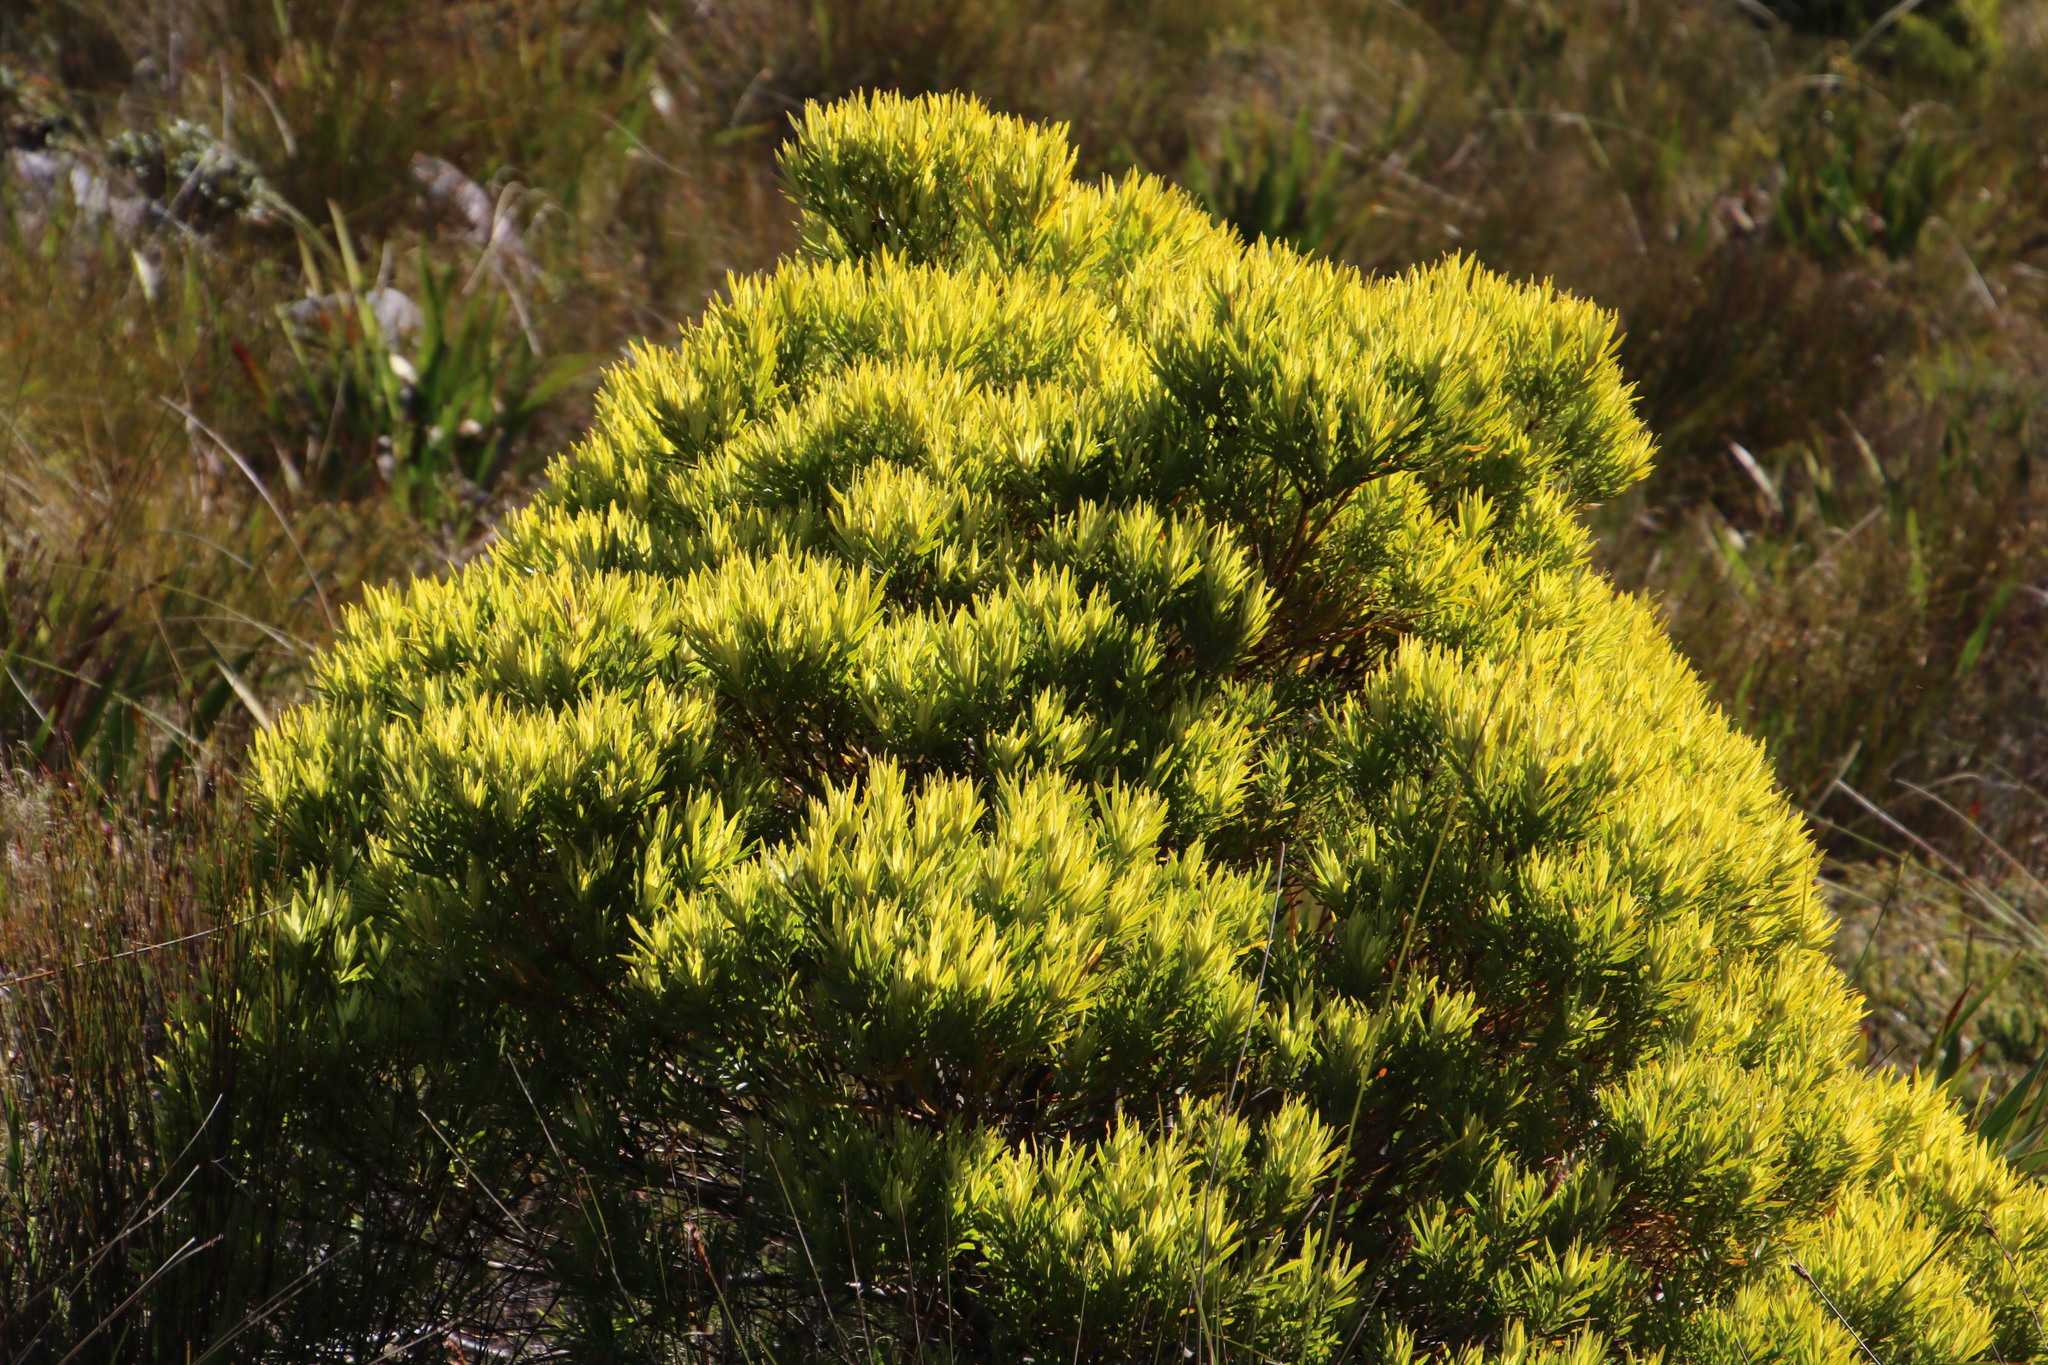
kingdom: Plantae
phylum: Tracheophyta
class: Magnoliopsida
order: Proteales
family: Proteaceae
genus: Leucadendron
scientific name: Leucadendron xanthoconus
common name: Sickle-leaf conebush
